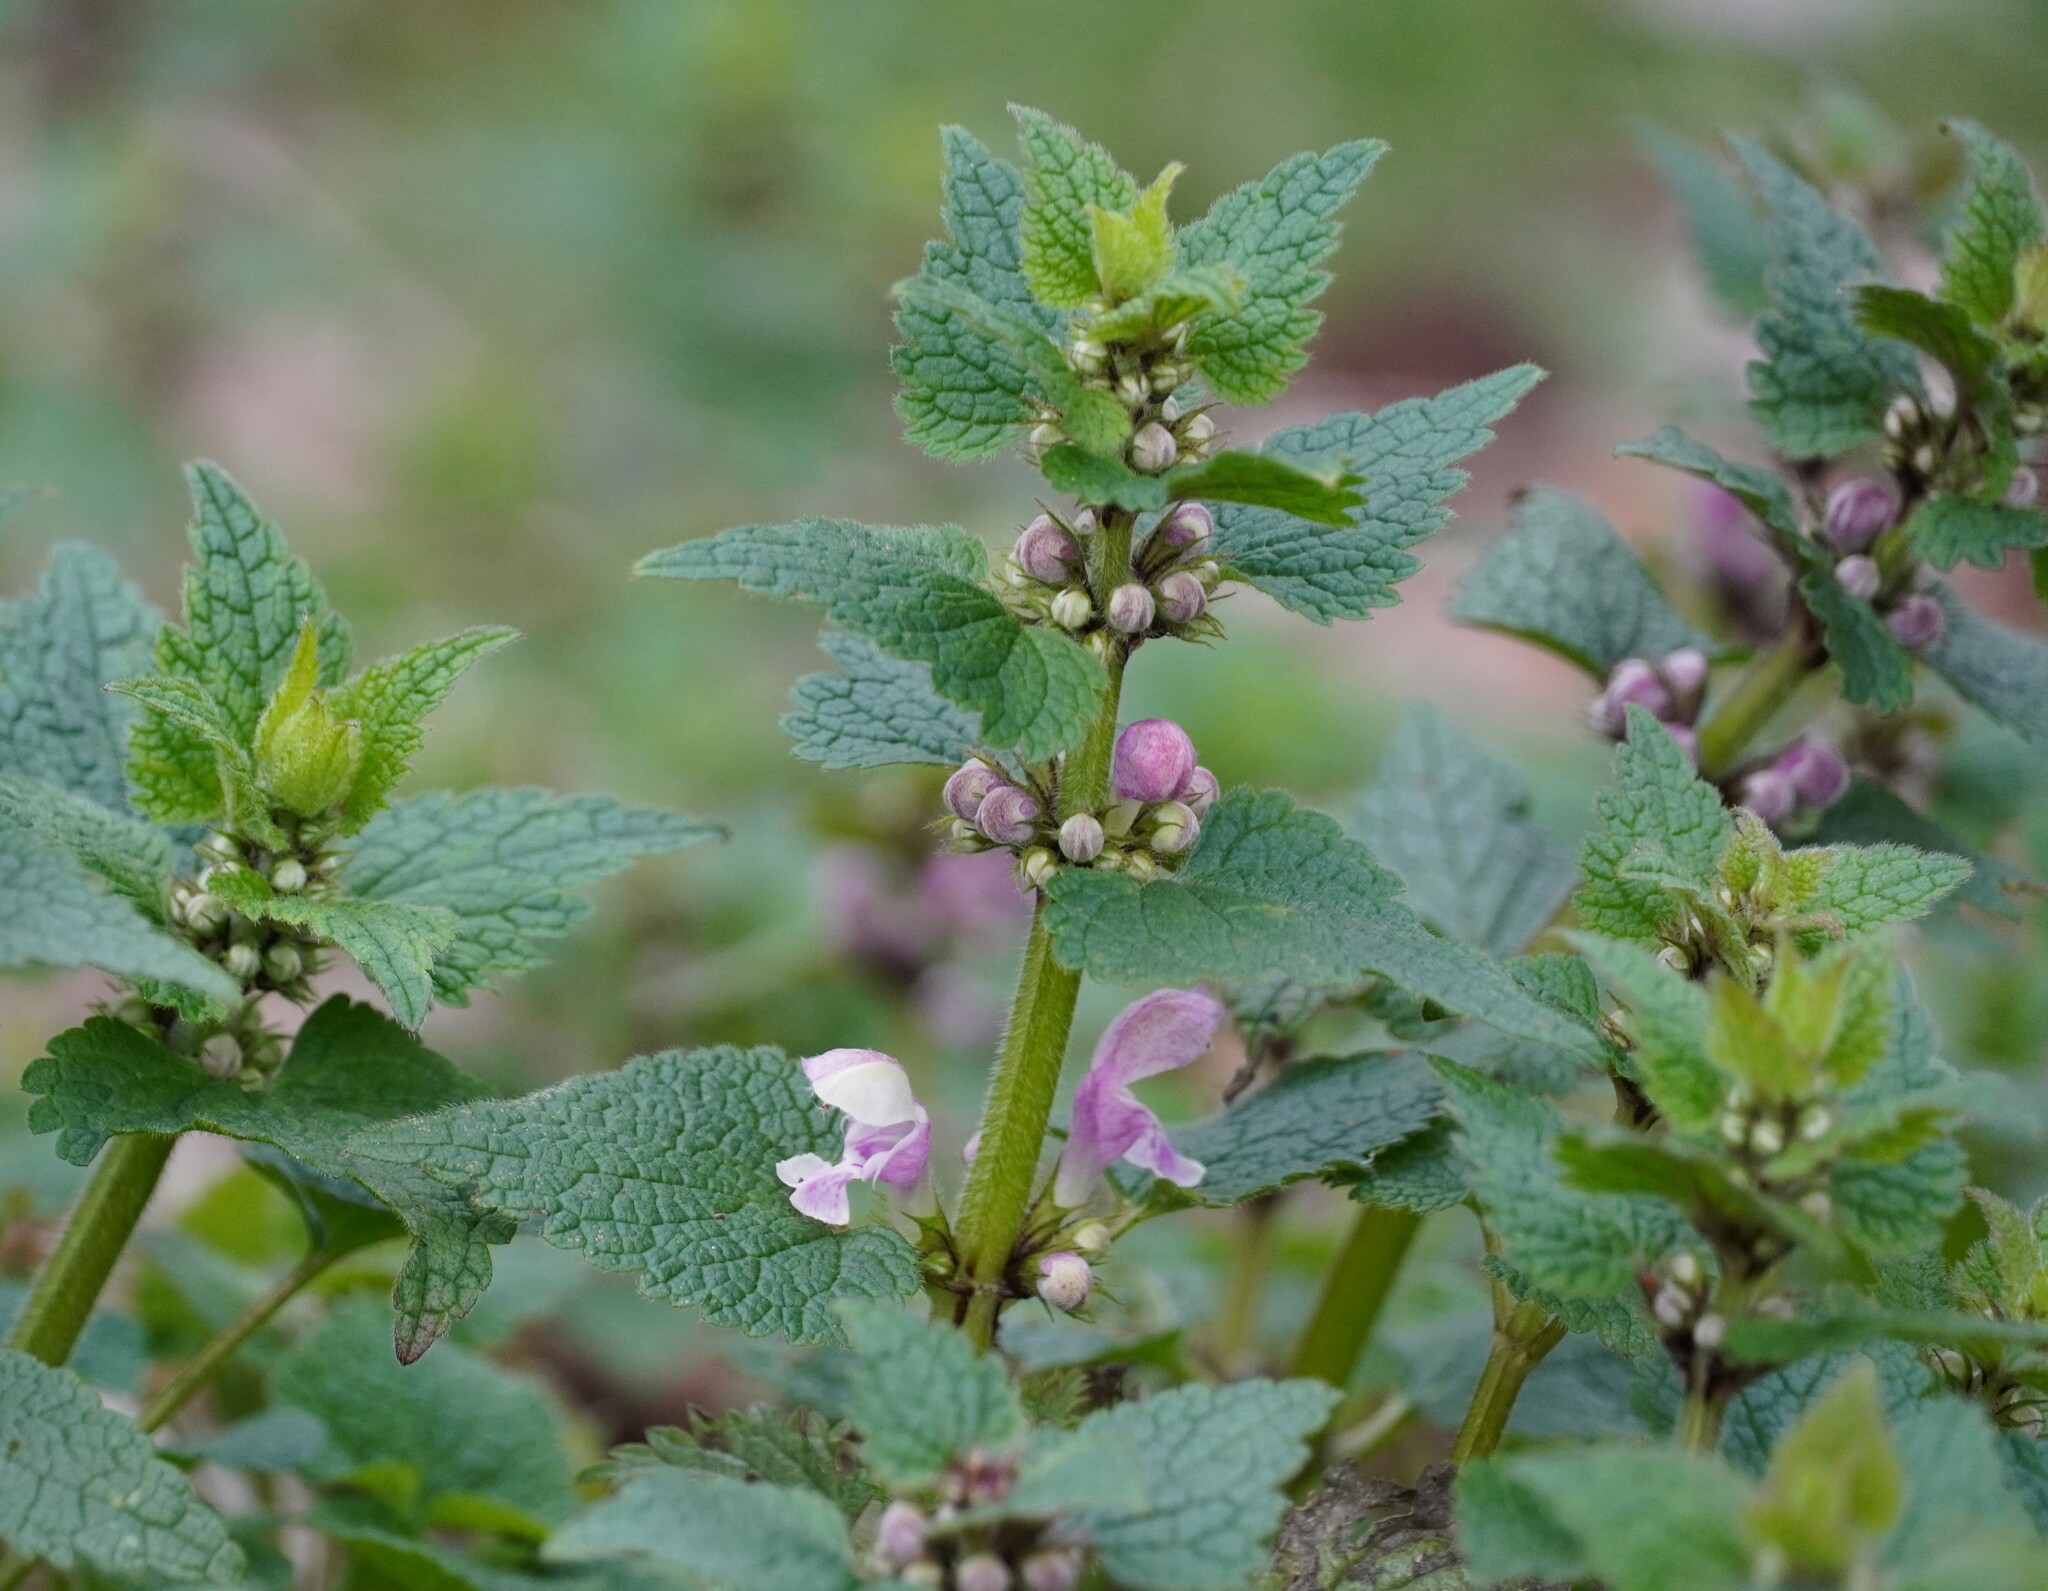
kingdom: Plantae
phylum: Tracheophyta
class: Magnoliopsida
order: Lamiales
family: Lamiaceae
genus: Lamium
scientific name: Lamium maculatum
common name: Spotted dead-nettle
